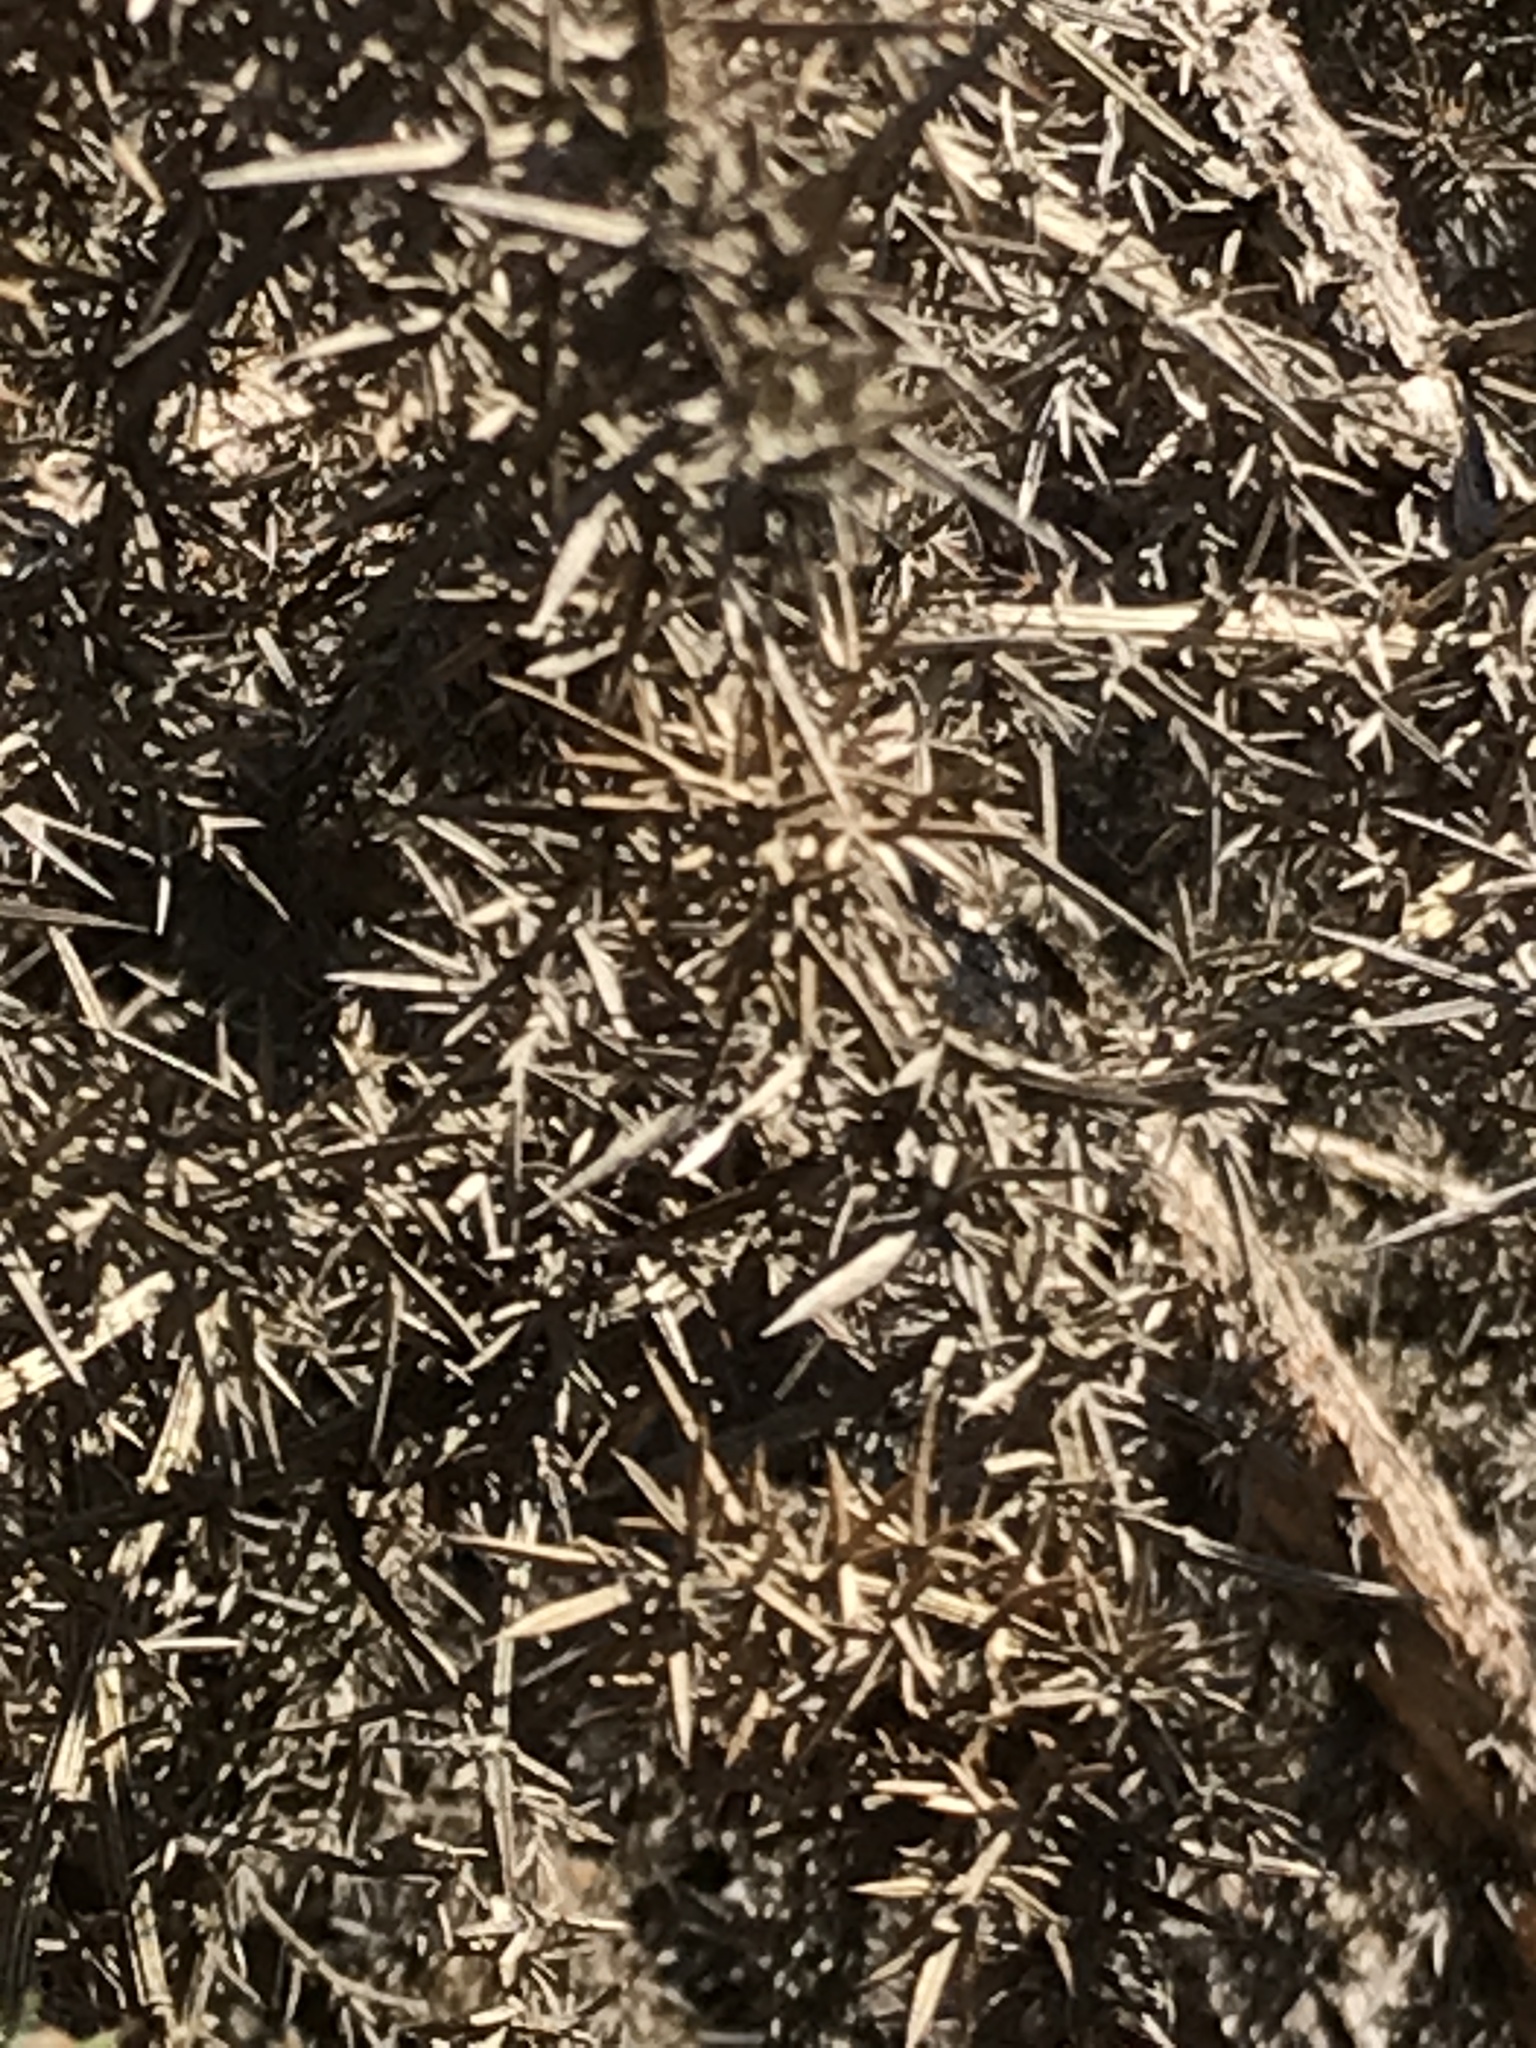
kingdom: Plantae
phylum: Tracheophyta
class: Magnoliopsida
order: Fabales
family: Fabaceae
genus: Ulex
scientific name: Ulex europaeus
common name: Common gorse
